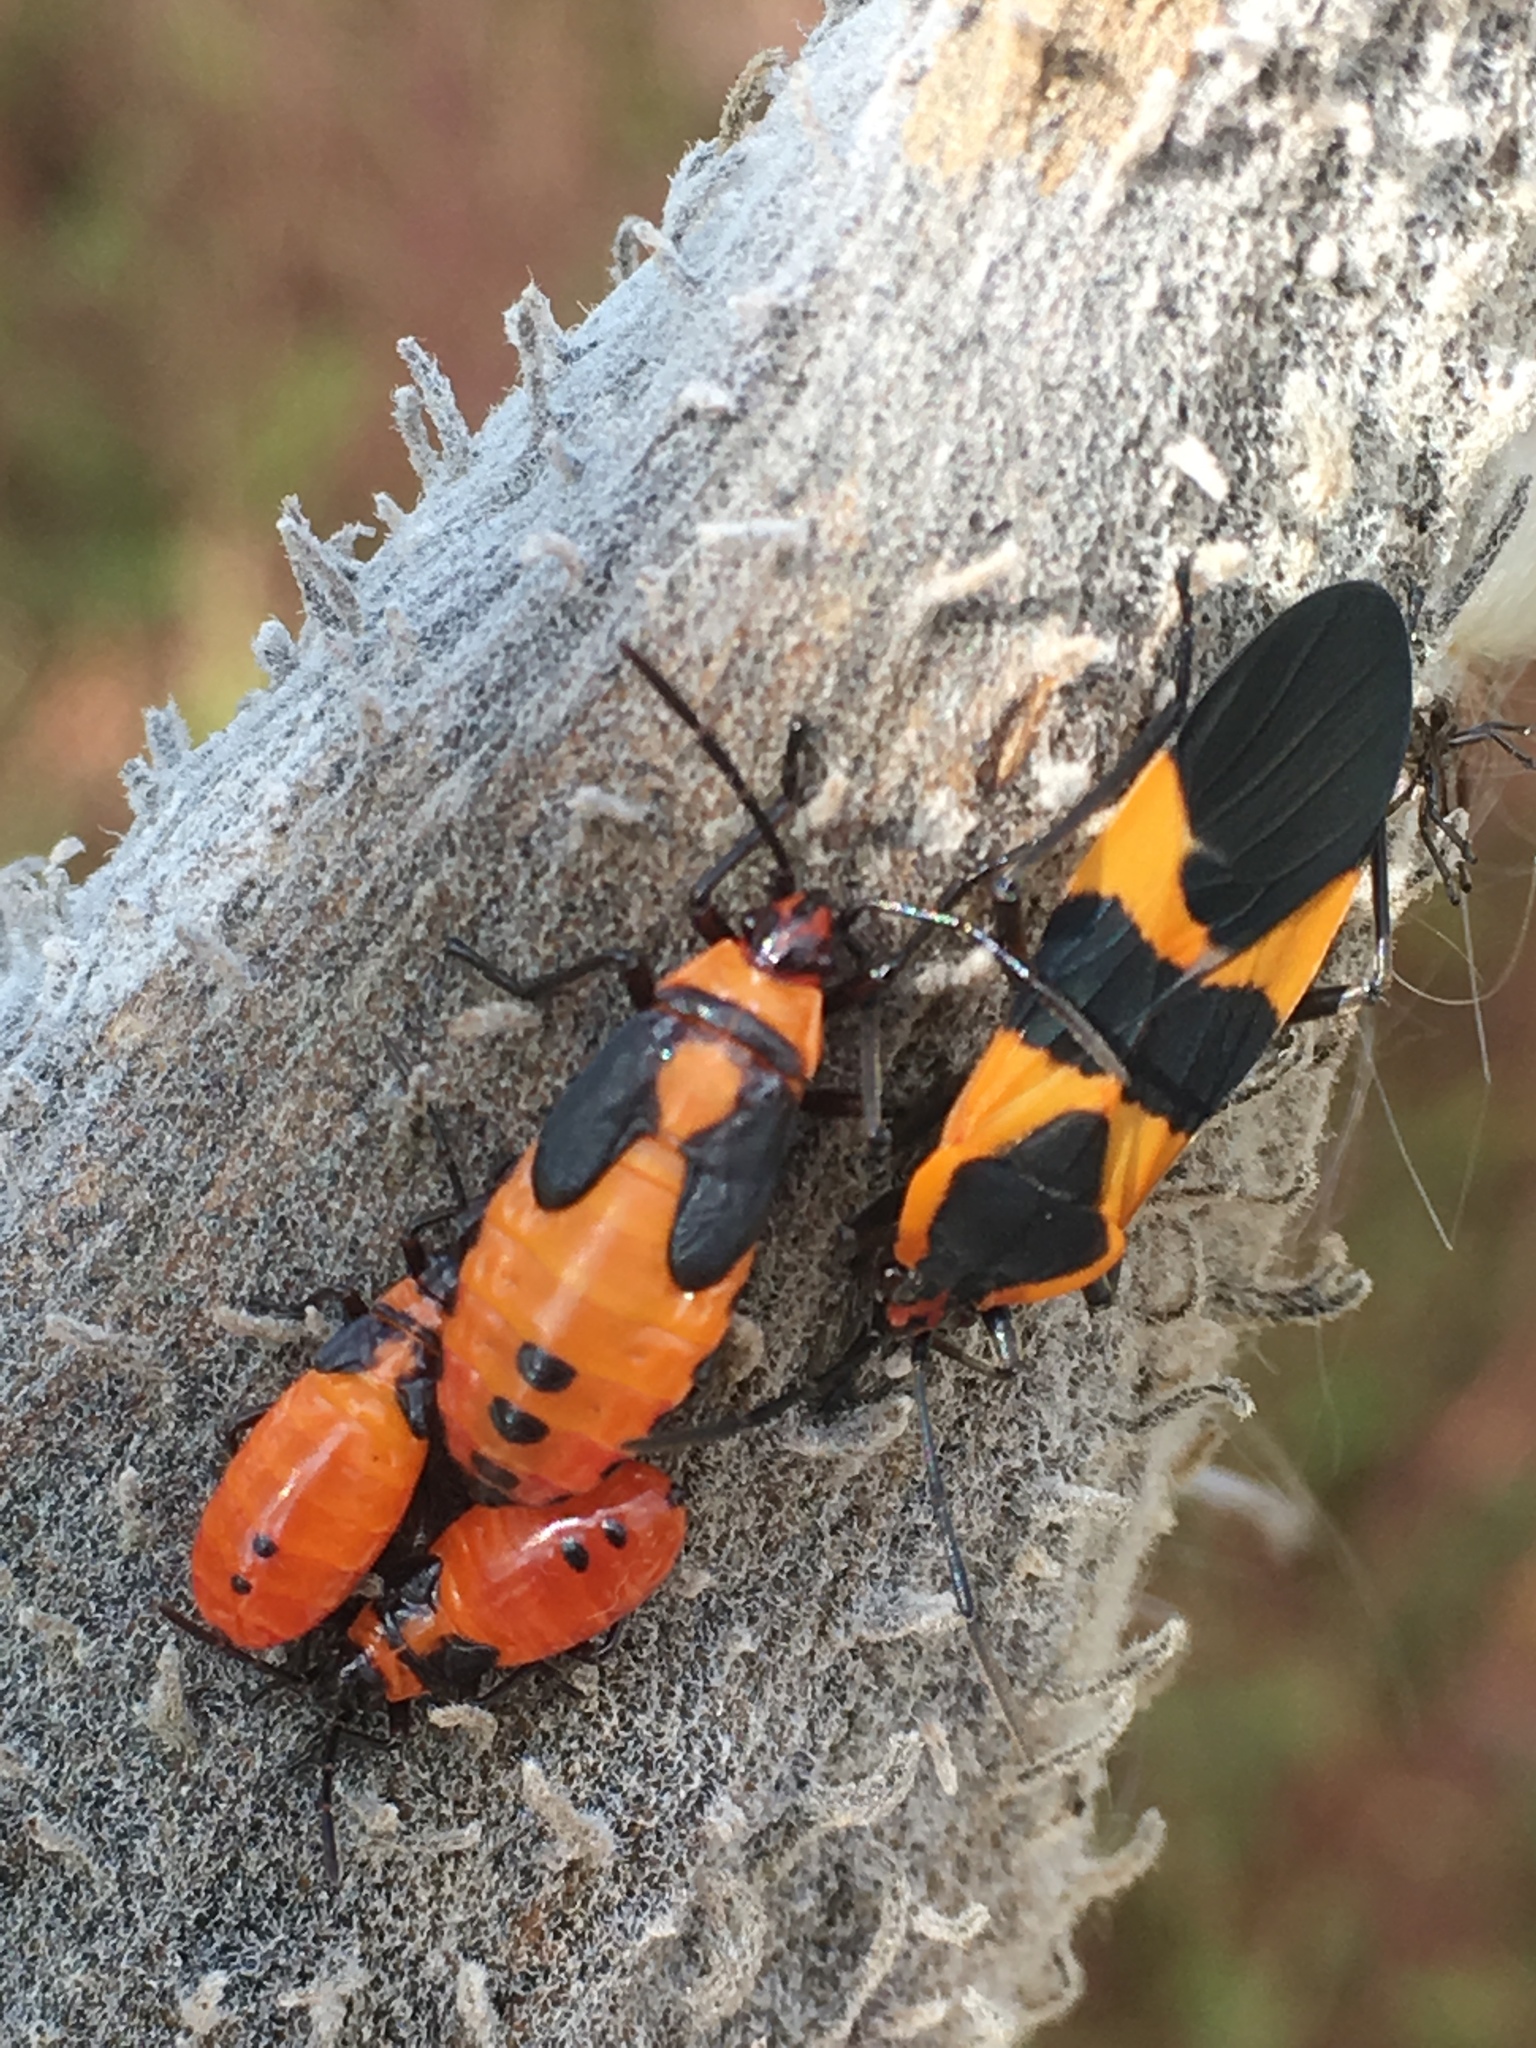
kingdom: Animalia
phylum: Arthropoda
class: Insecta
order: Hemiptera
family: Lygaeidae
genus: Oncopeltus
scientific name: Oncopeltus fasciatus
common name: Large milkweed bug
